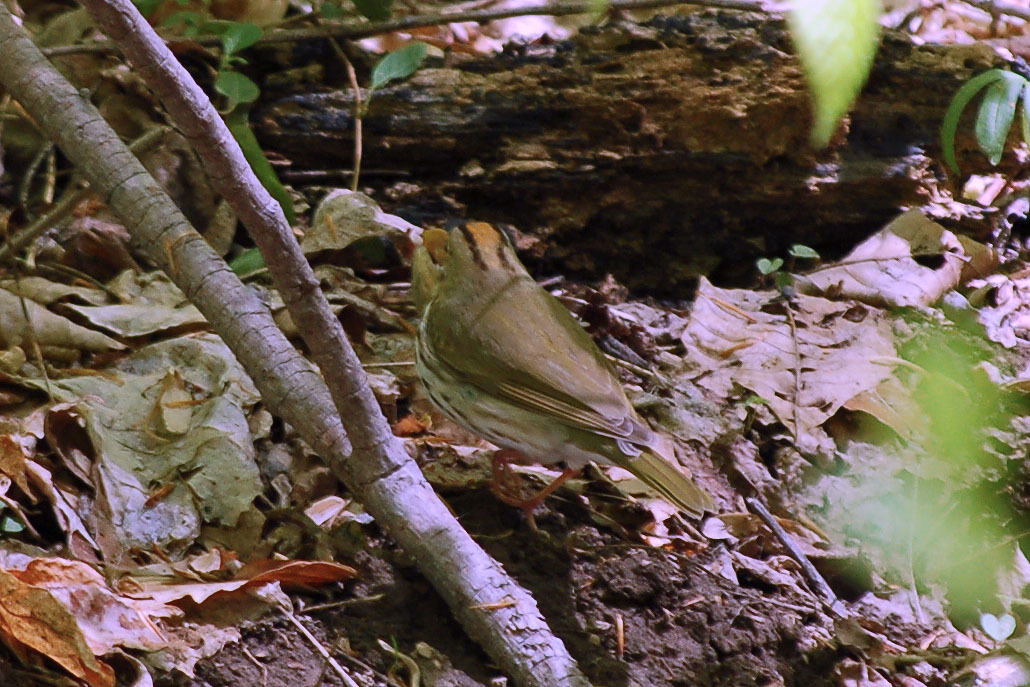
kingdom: Animalia
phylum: Chordata
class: Aves
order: Passeriformes
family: Parulidae
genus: Seiurus
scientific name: Seiurus aurocapilla
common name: Ovenbird
